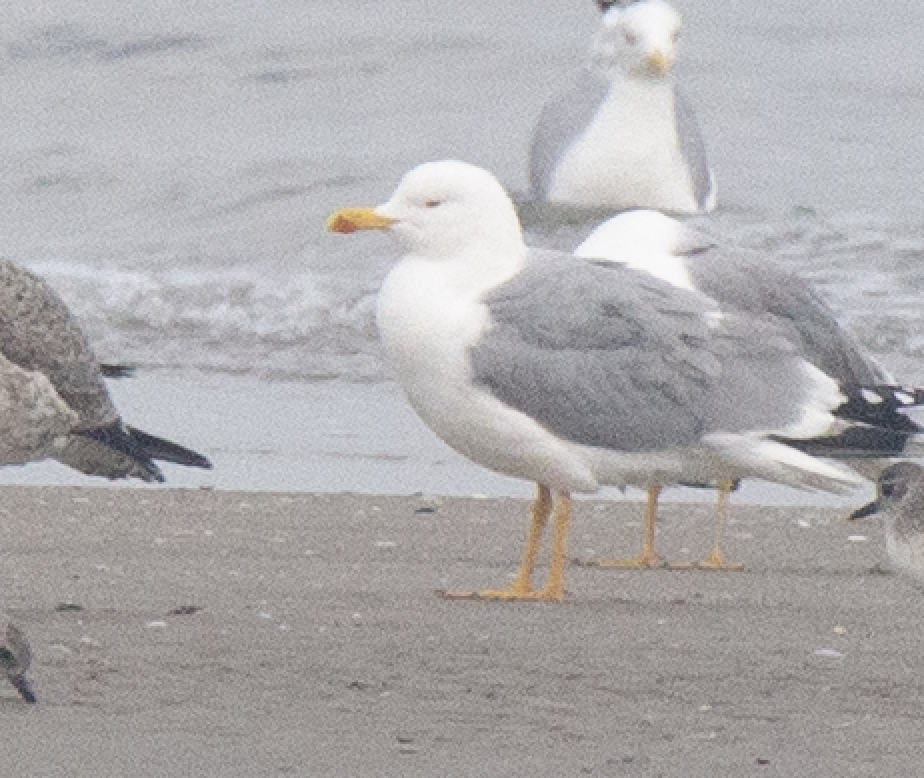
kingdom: Animalia
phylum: Chordata
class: Aves
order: Charadriiformes
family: Laridae
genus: Larus
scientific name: Larus michahellis
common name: Yellow-legged gull
